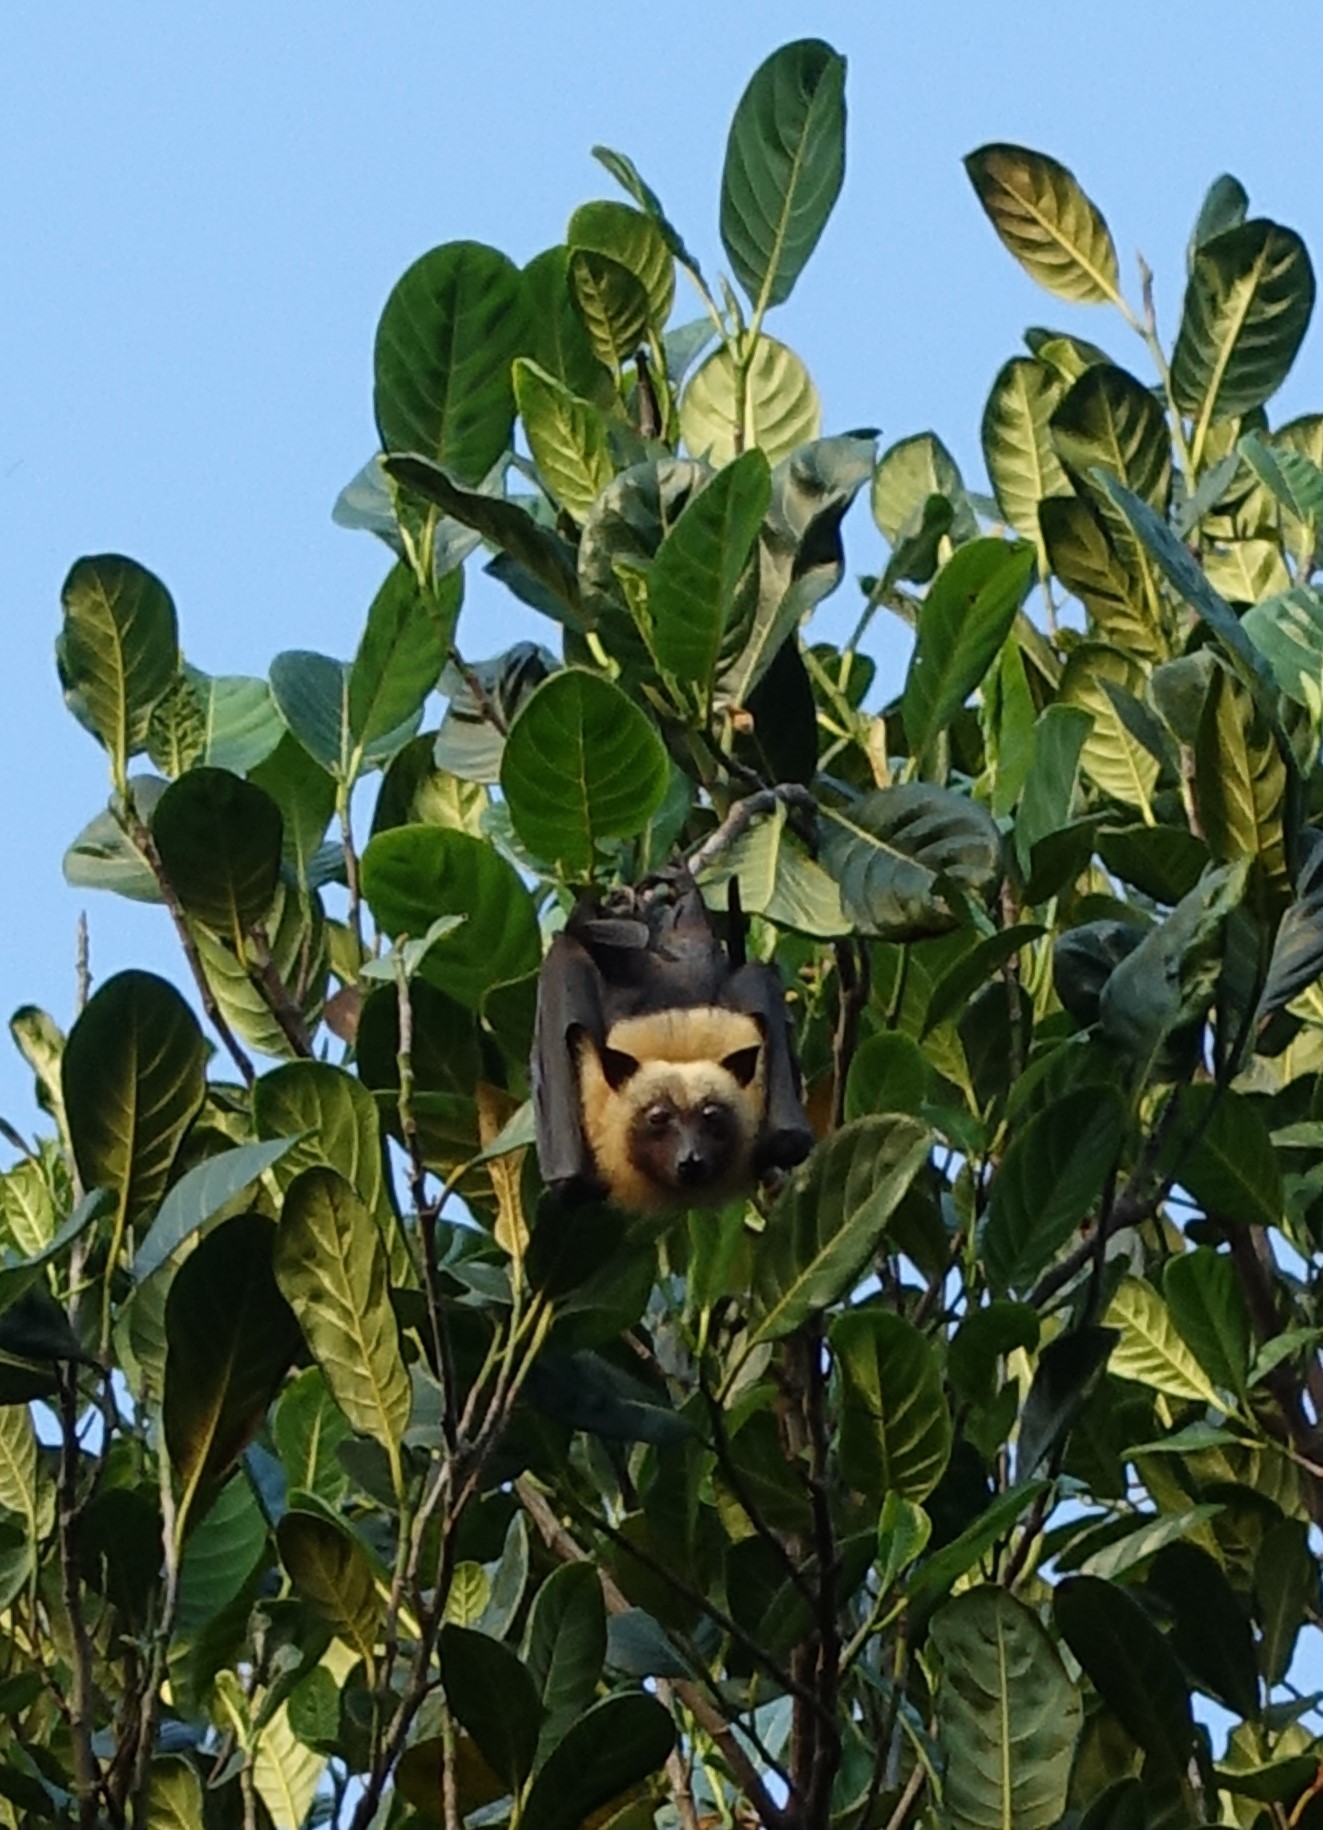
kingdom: Animalia
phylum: Chordata
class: Mammalia
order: Chiroptera
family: Pteropodidae
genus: Pteropus
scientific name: Pteropus seychellensis
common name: Seychelles flying fox
